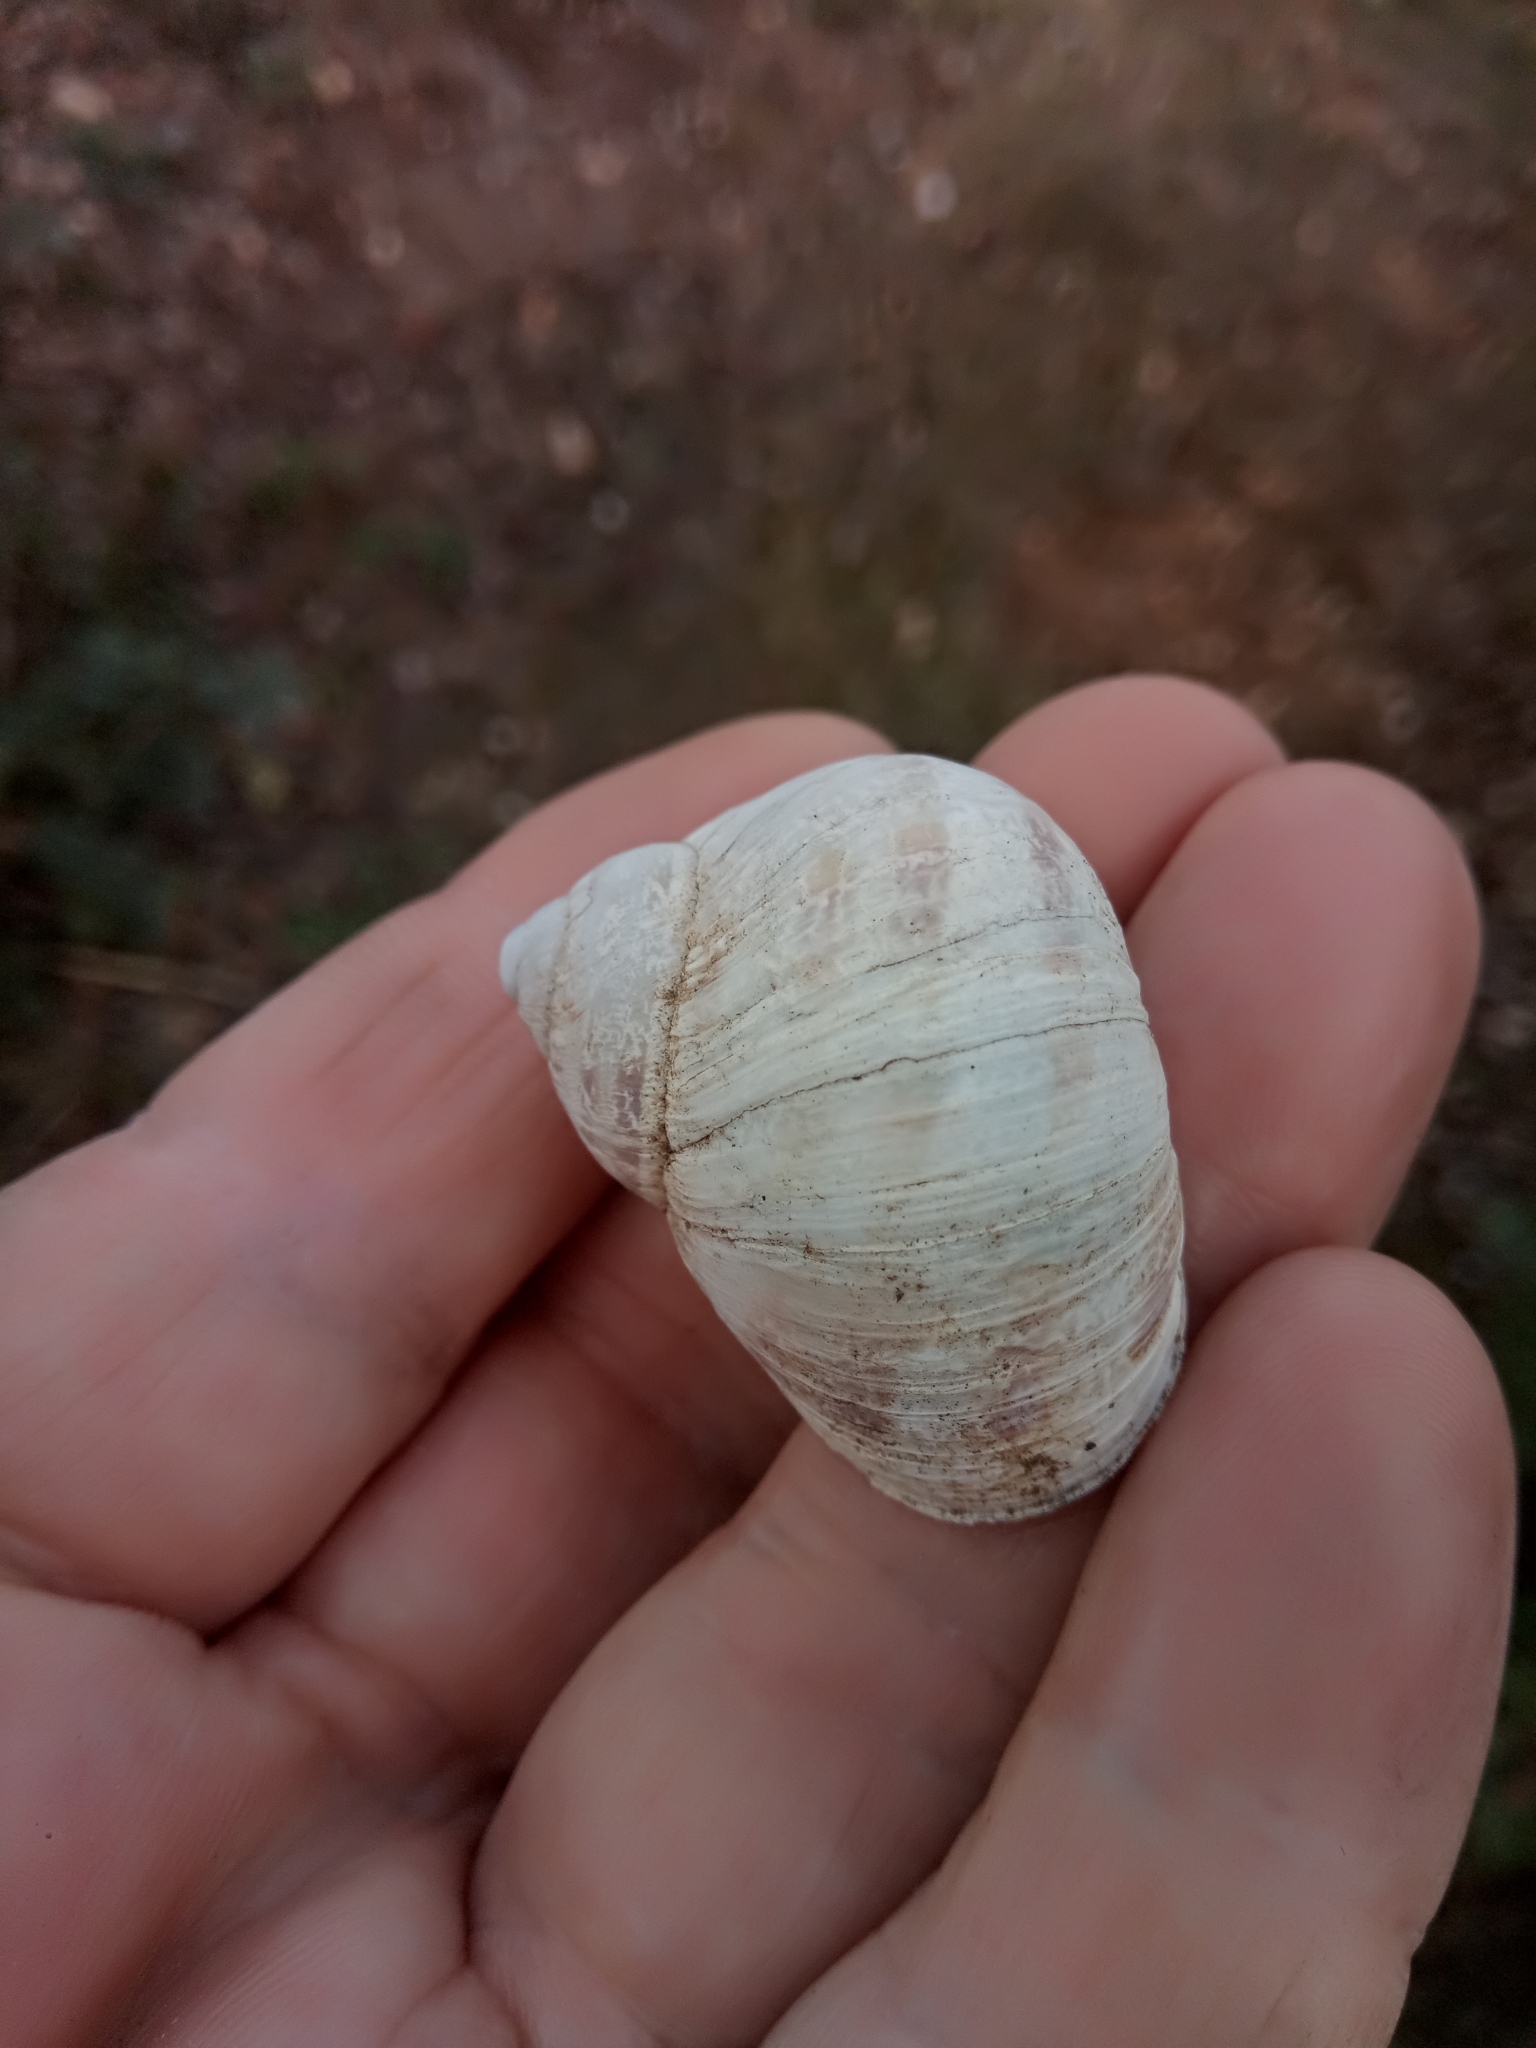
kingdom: Animalia
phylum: Mollusca
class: Gastropoda
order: Stylommatophora
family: Helicidae
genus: Cornu
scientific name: Cornu aspersum
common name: Brown garden snail
